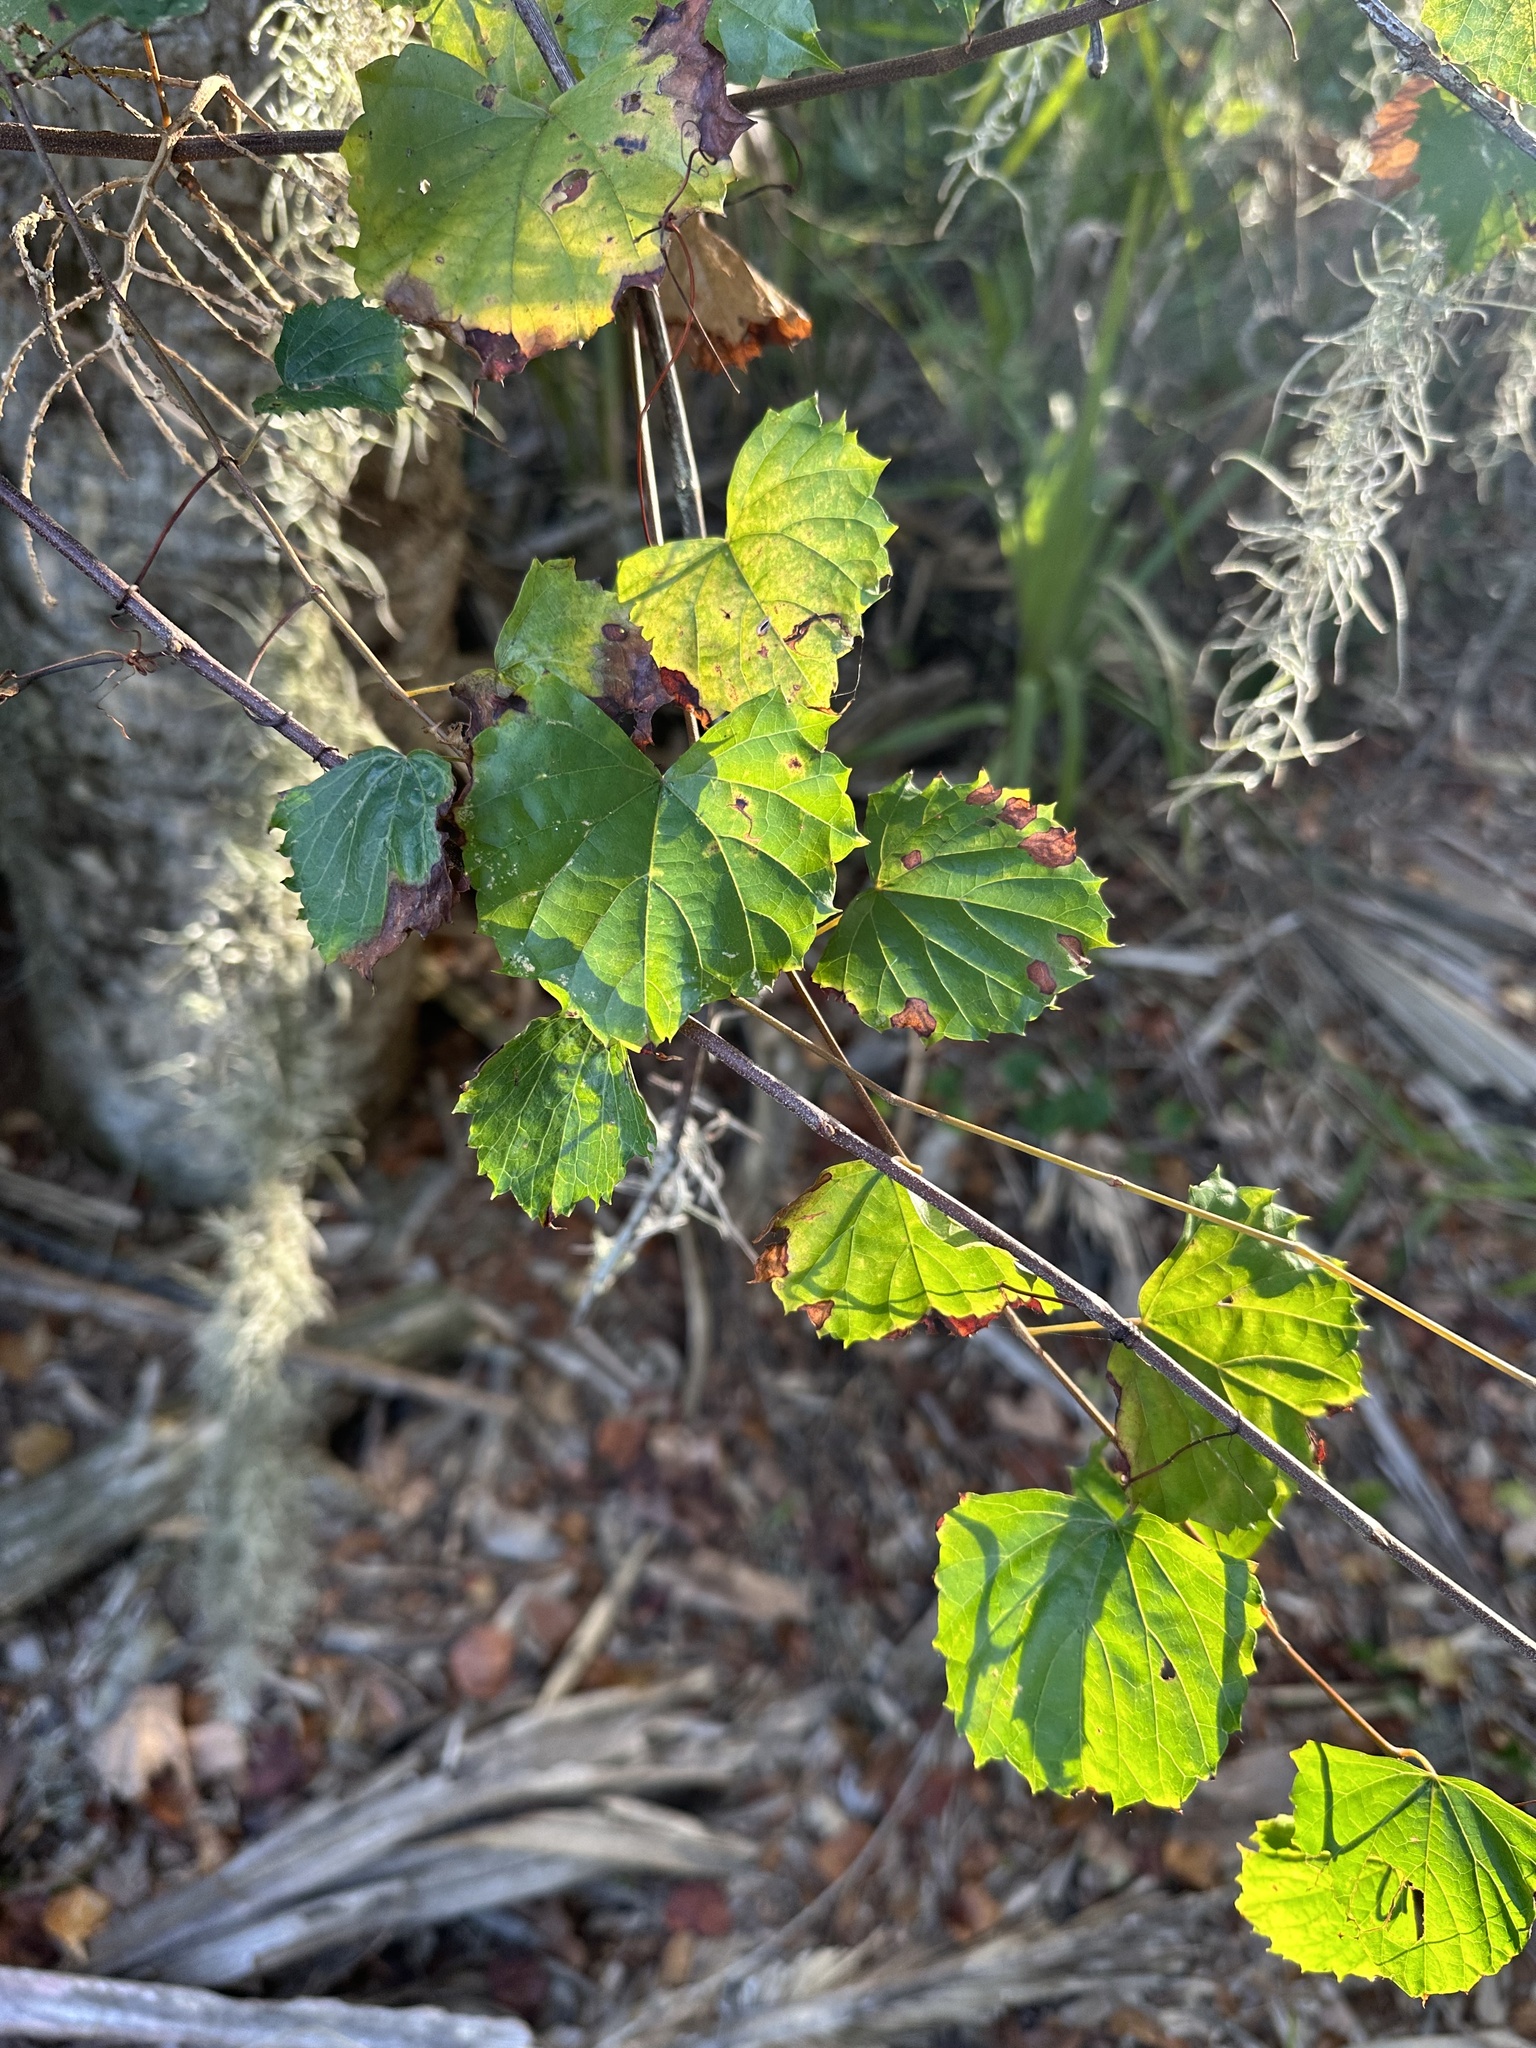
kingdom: Plantae
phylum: Tracheophyta
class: Magnoliopsida
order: Vitales
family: Vitaceae
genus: Vitis
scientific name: Vitis rotundifolia
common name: Muscadine grape
